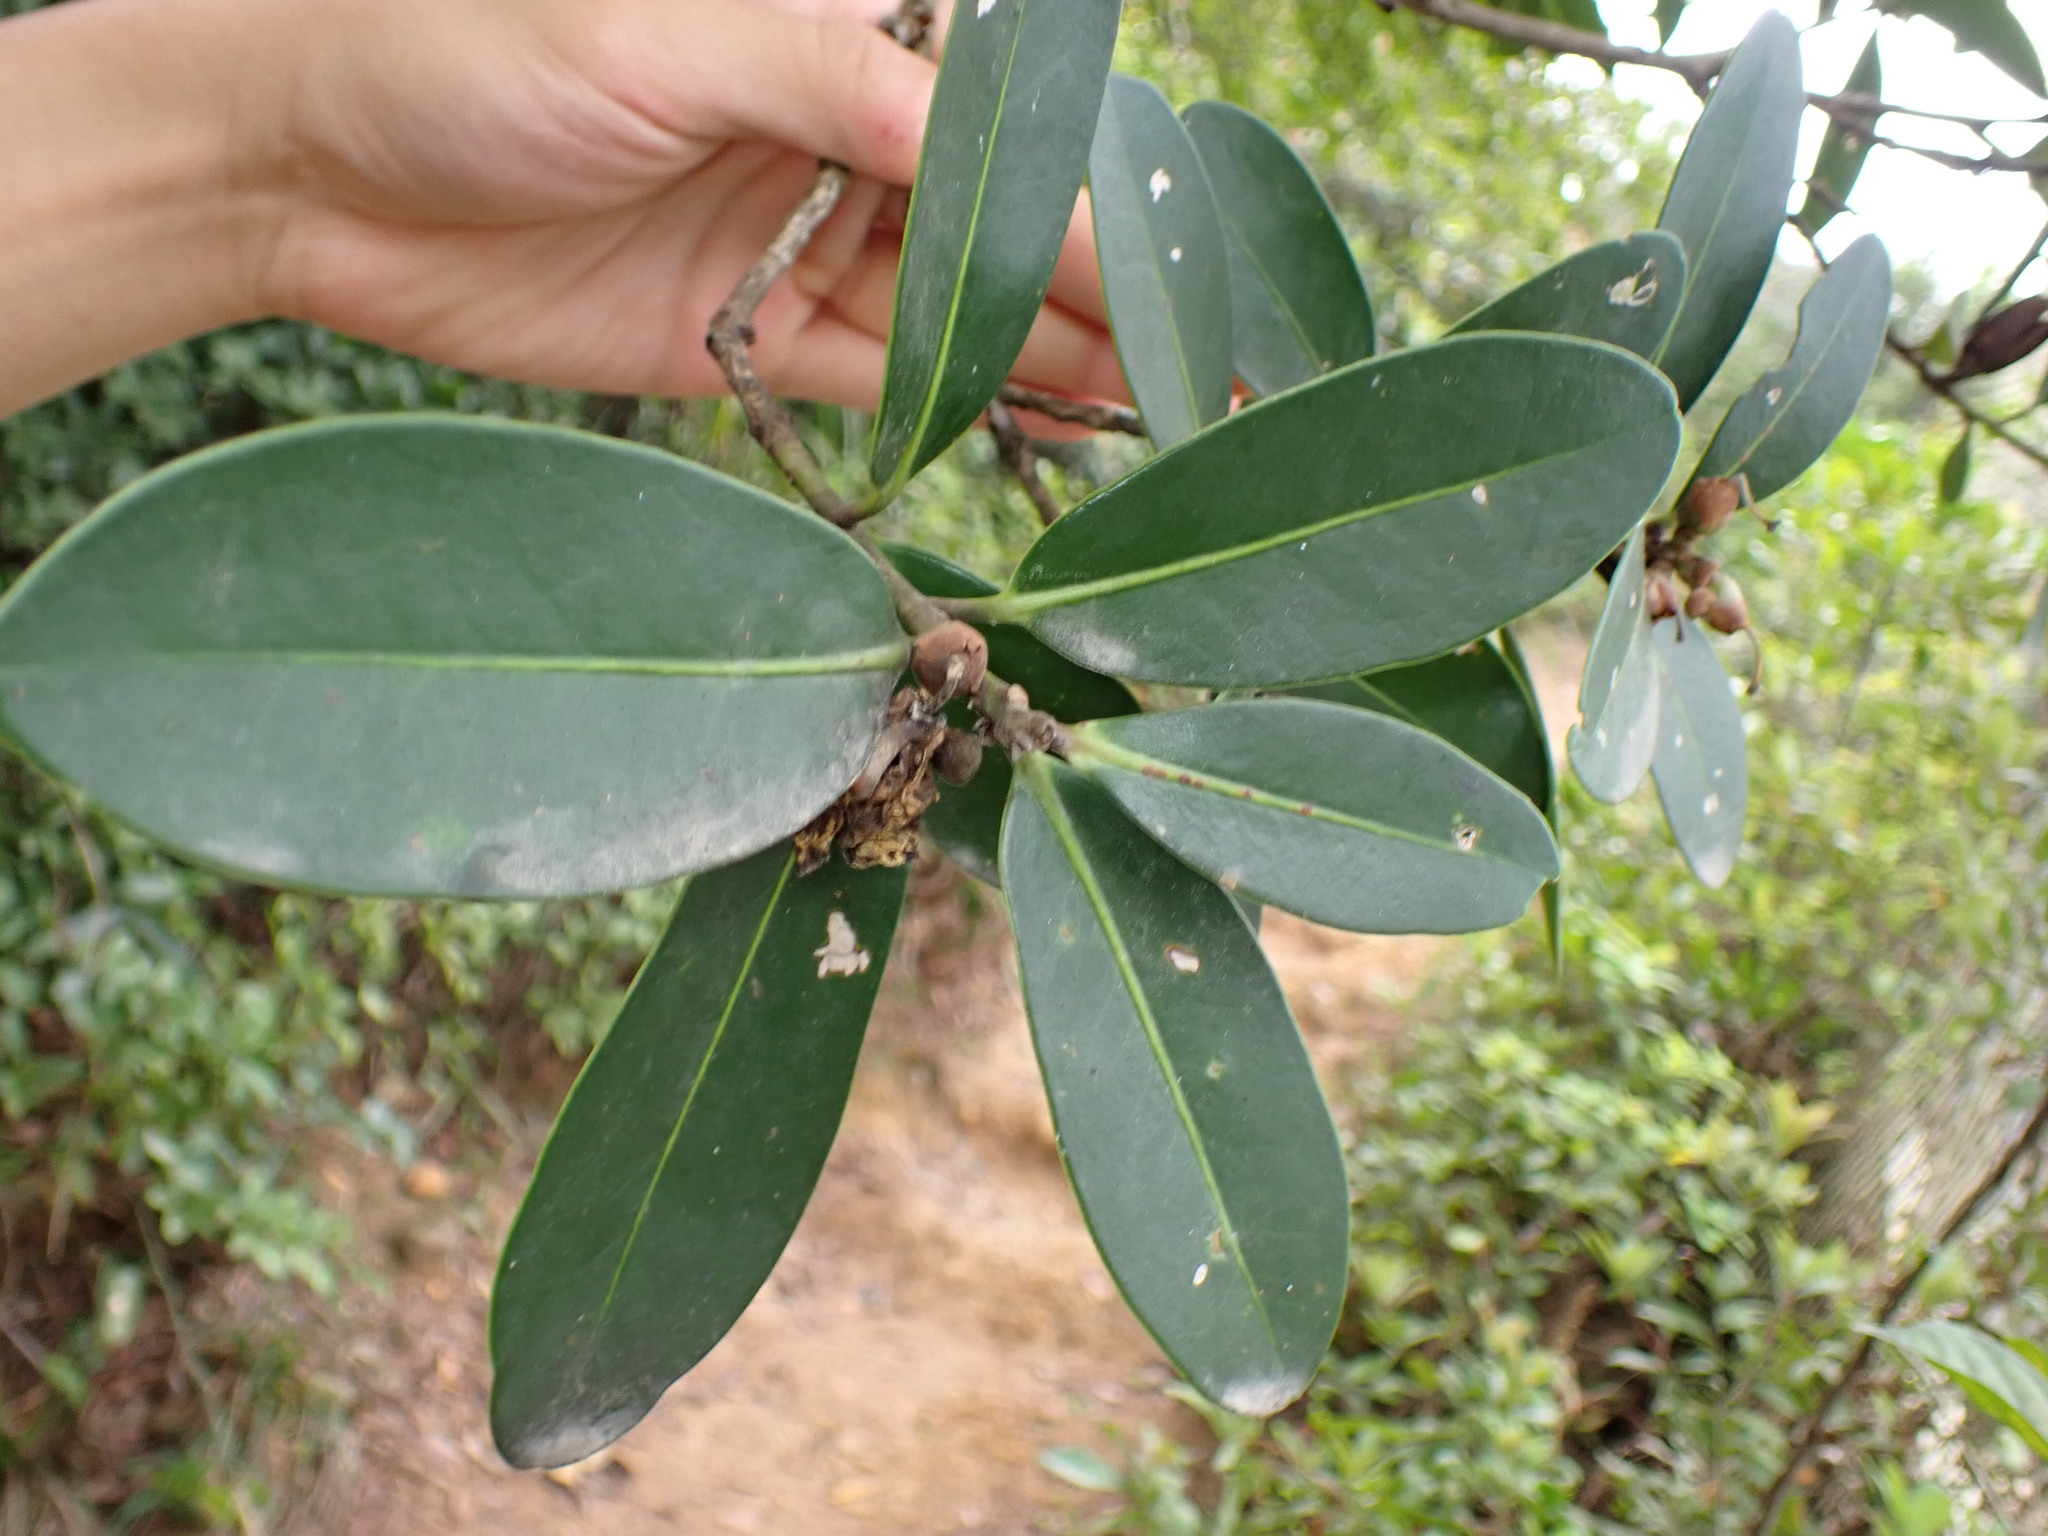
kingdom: Plantae
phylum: Tracheophyta
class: Magnoliopsida
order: Ericales
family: Theaceae
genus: Polyspora
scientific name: Polyspora axillaris
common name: Fried egg tree
